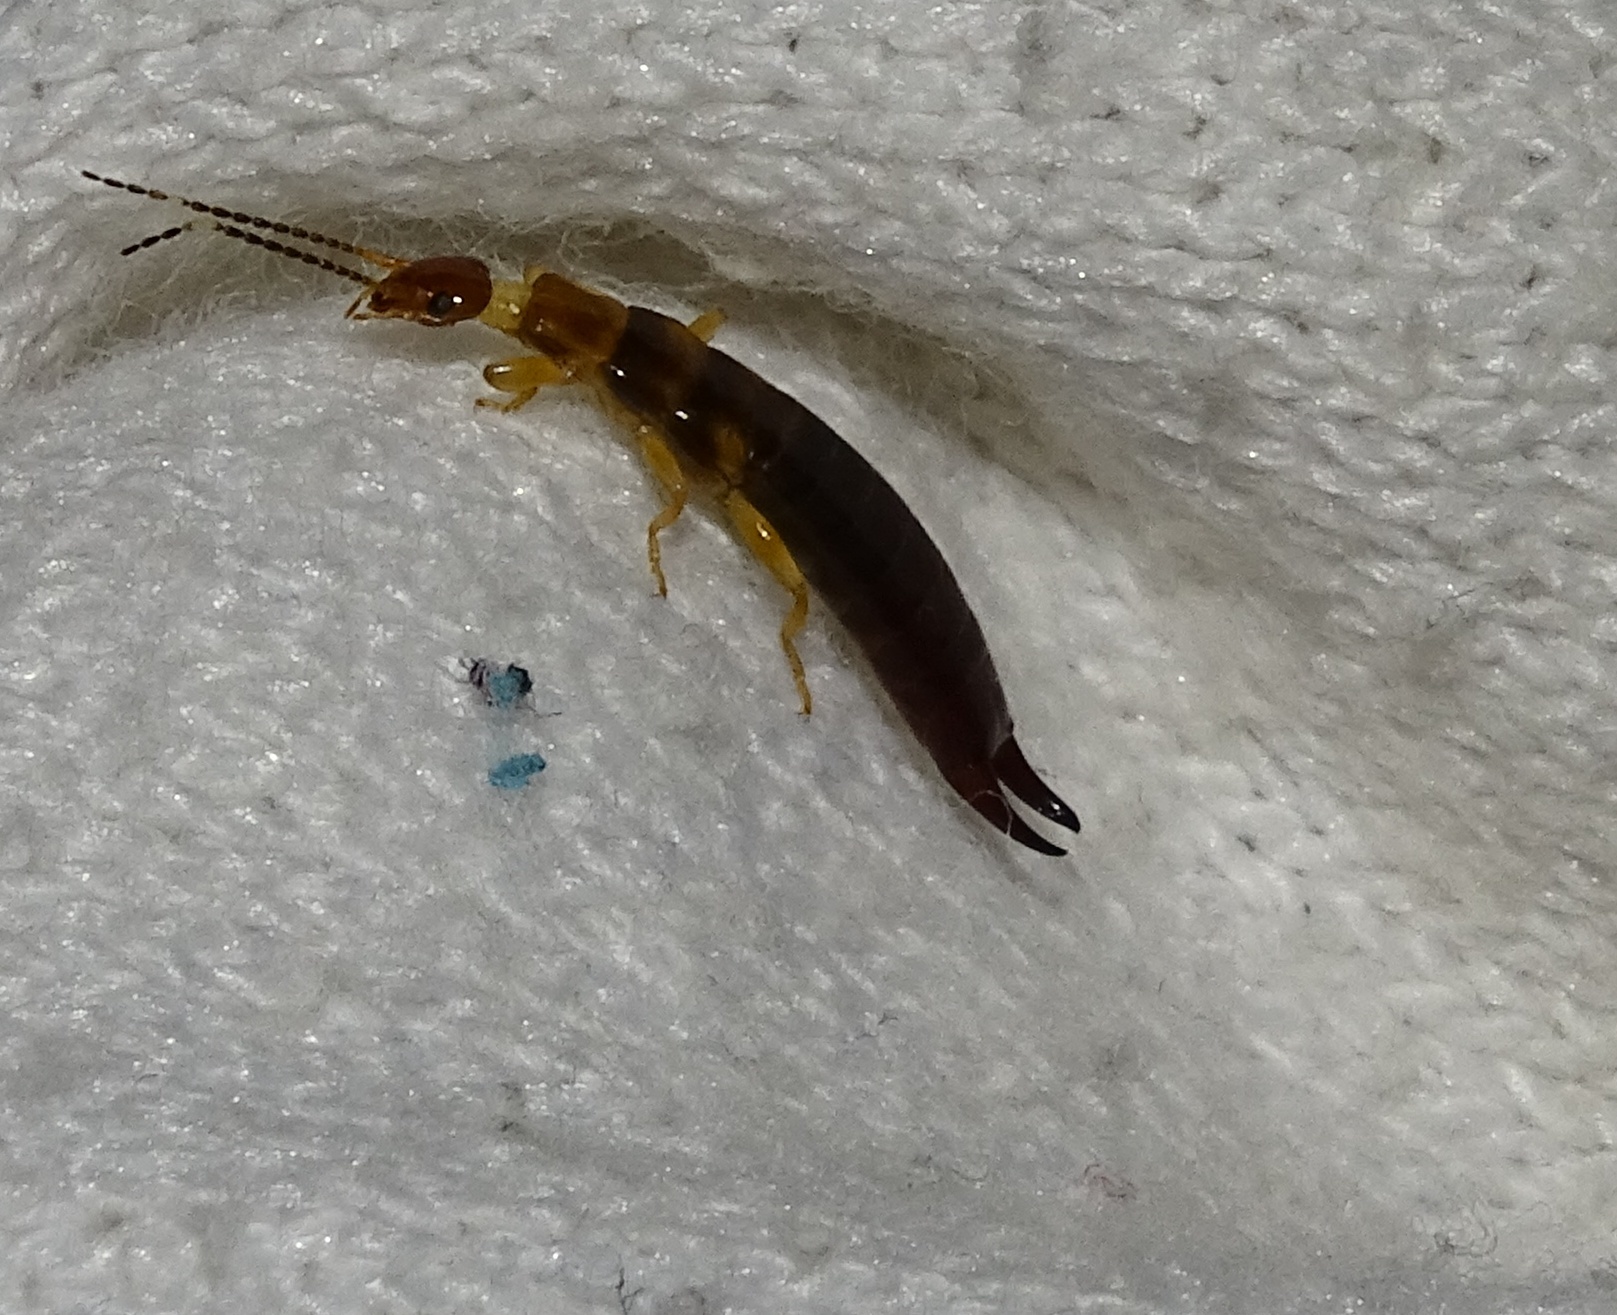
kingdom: Animalia
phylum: Arthropoda
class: Insecta
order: Dermaptera
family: Anisolabididae
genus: Euborellia
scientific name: Euborellia annulipes
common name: Ringlegged earwig
